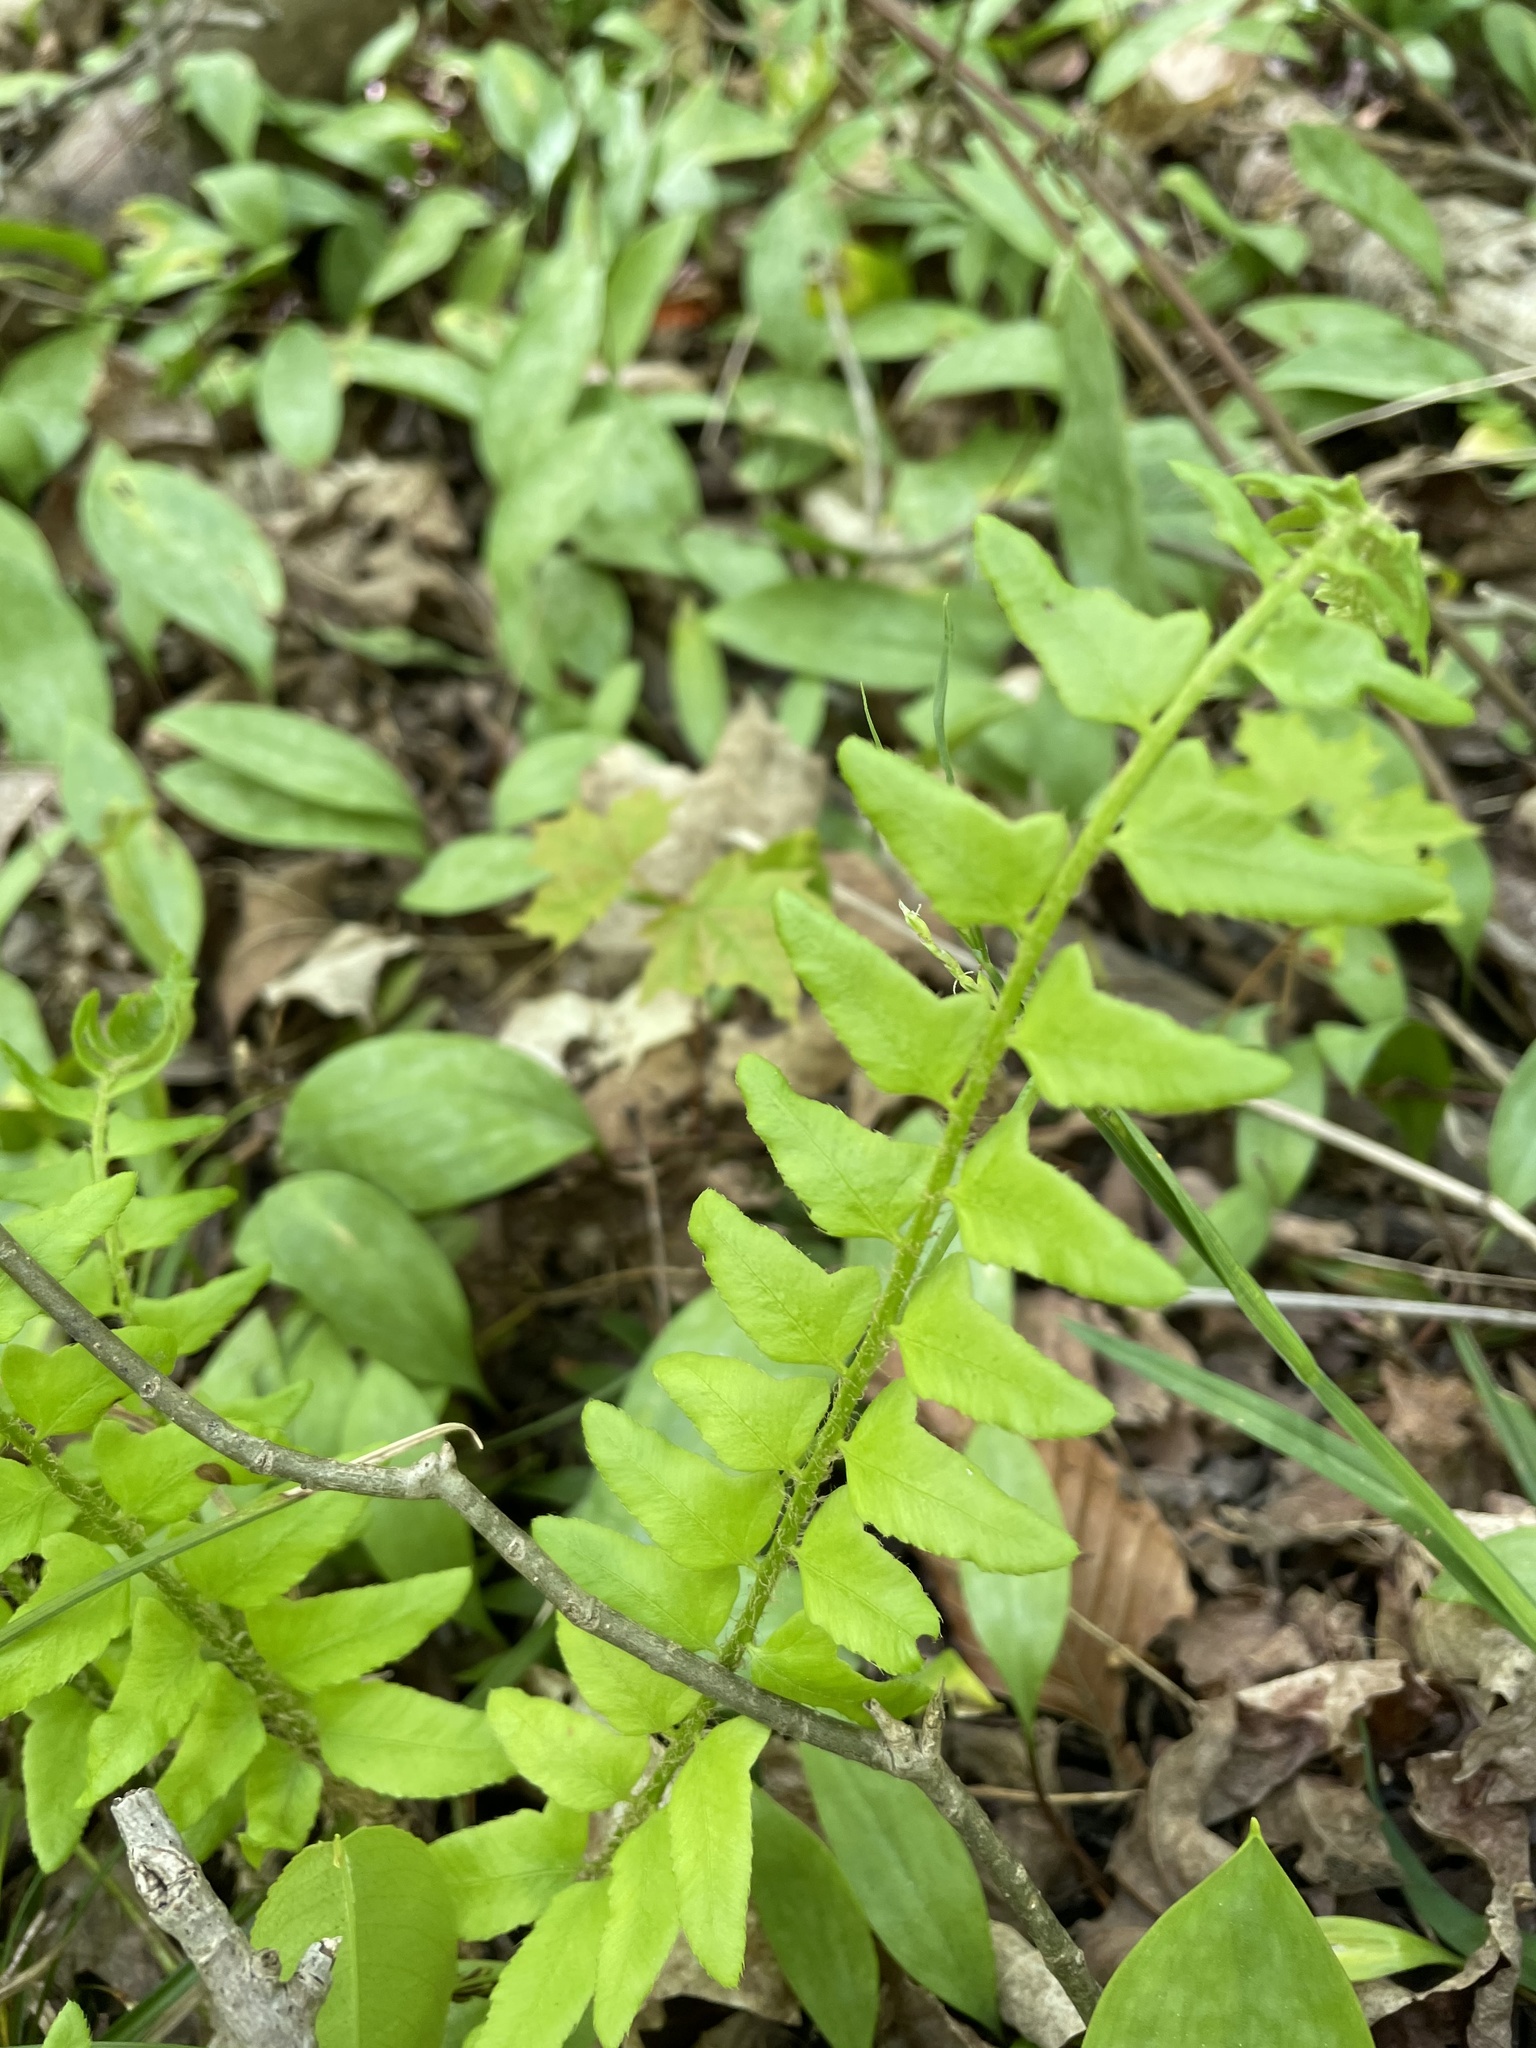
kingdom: Plantae
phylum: Tracheophyta
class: Polypodiopsida
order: Polypodiales
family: Dryopteridaceae
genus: Polystichum
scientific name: Polystichum acrostichoides
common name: Christmas fern
